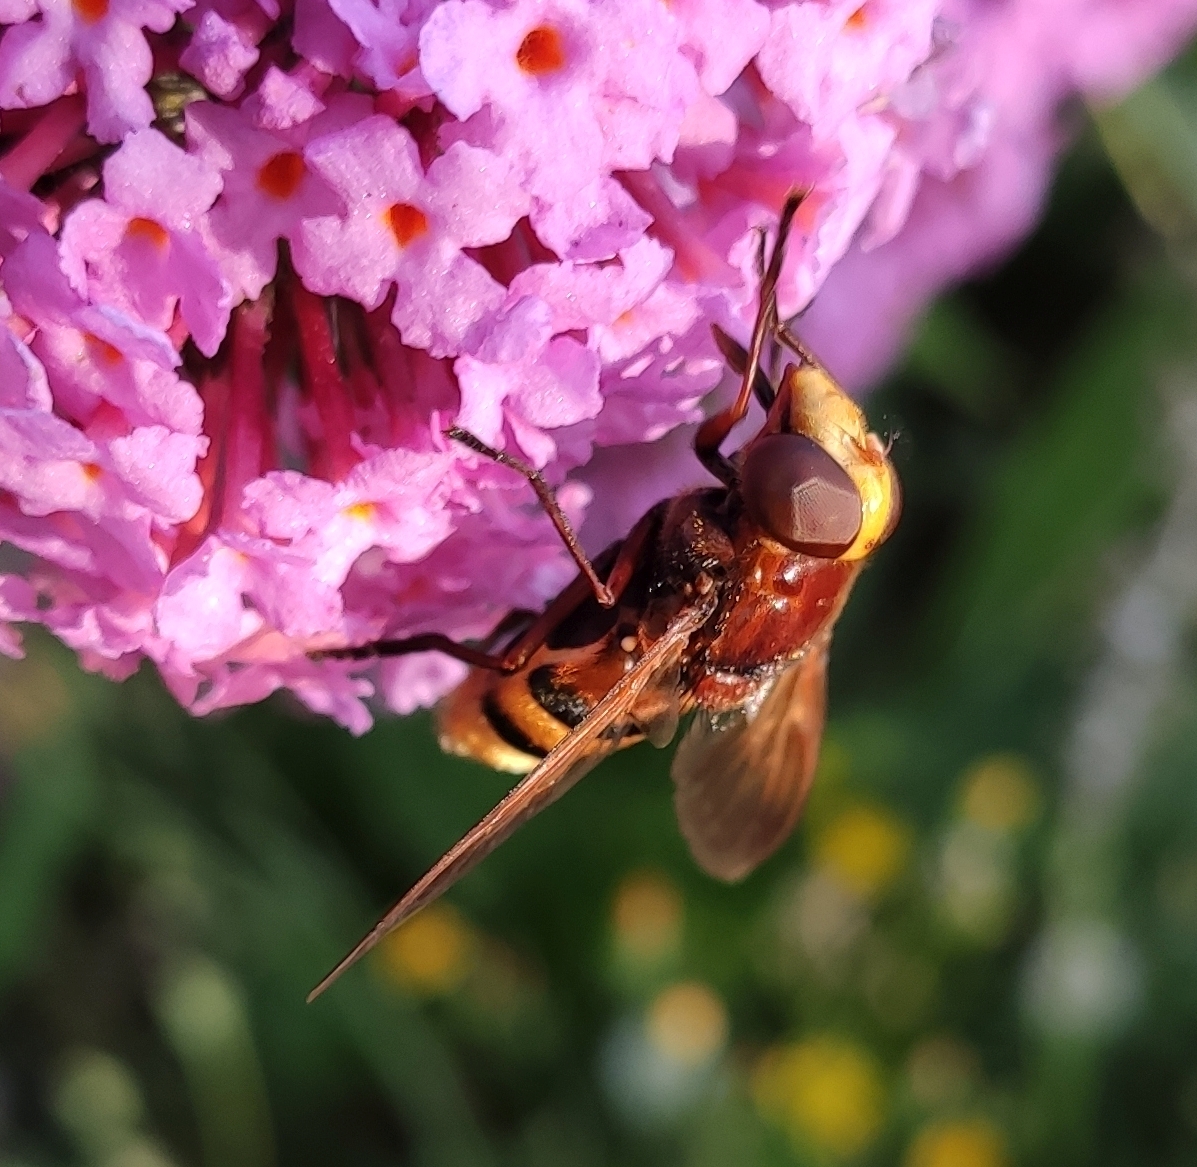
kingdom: Animalia
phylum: Arthropoda
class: Insecta
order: Diptera
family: Syrphidae
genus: Volucella
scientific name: Volucella zonaria
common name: Hornet hoverfly
